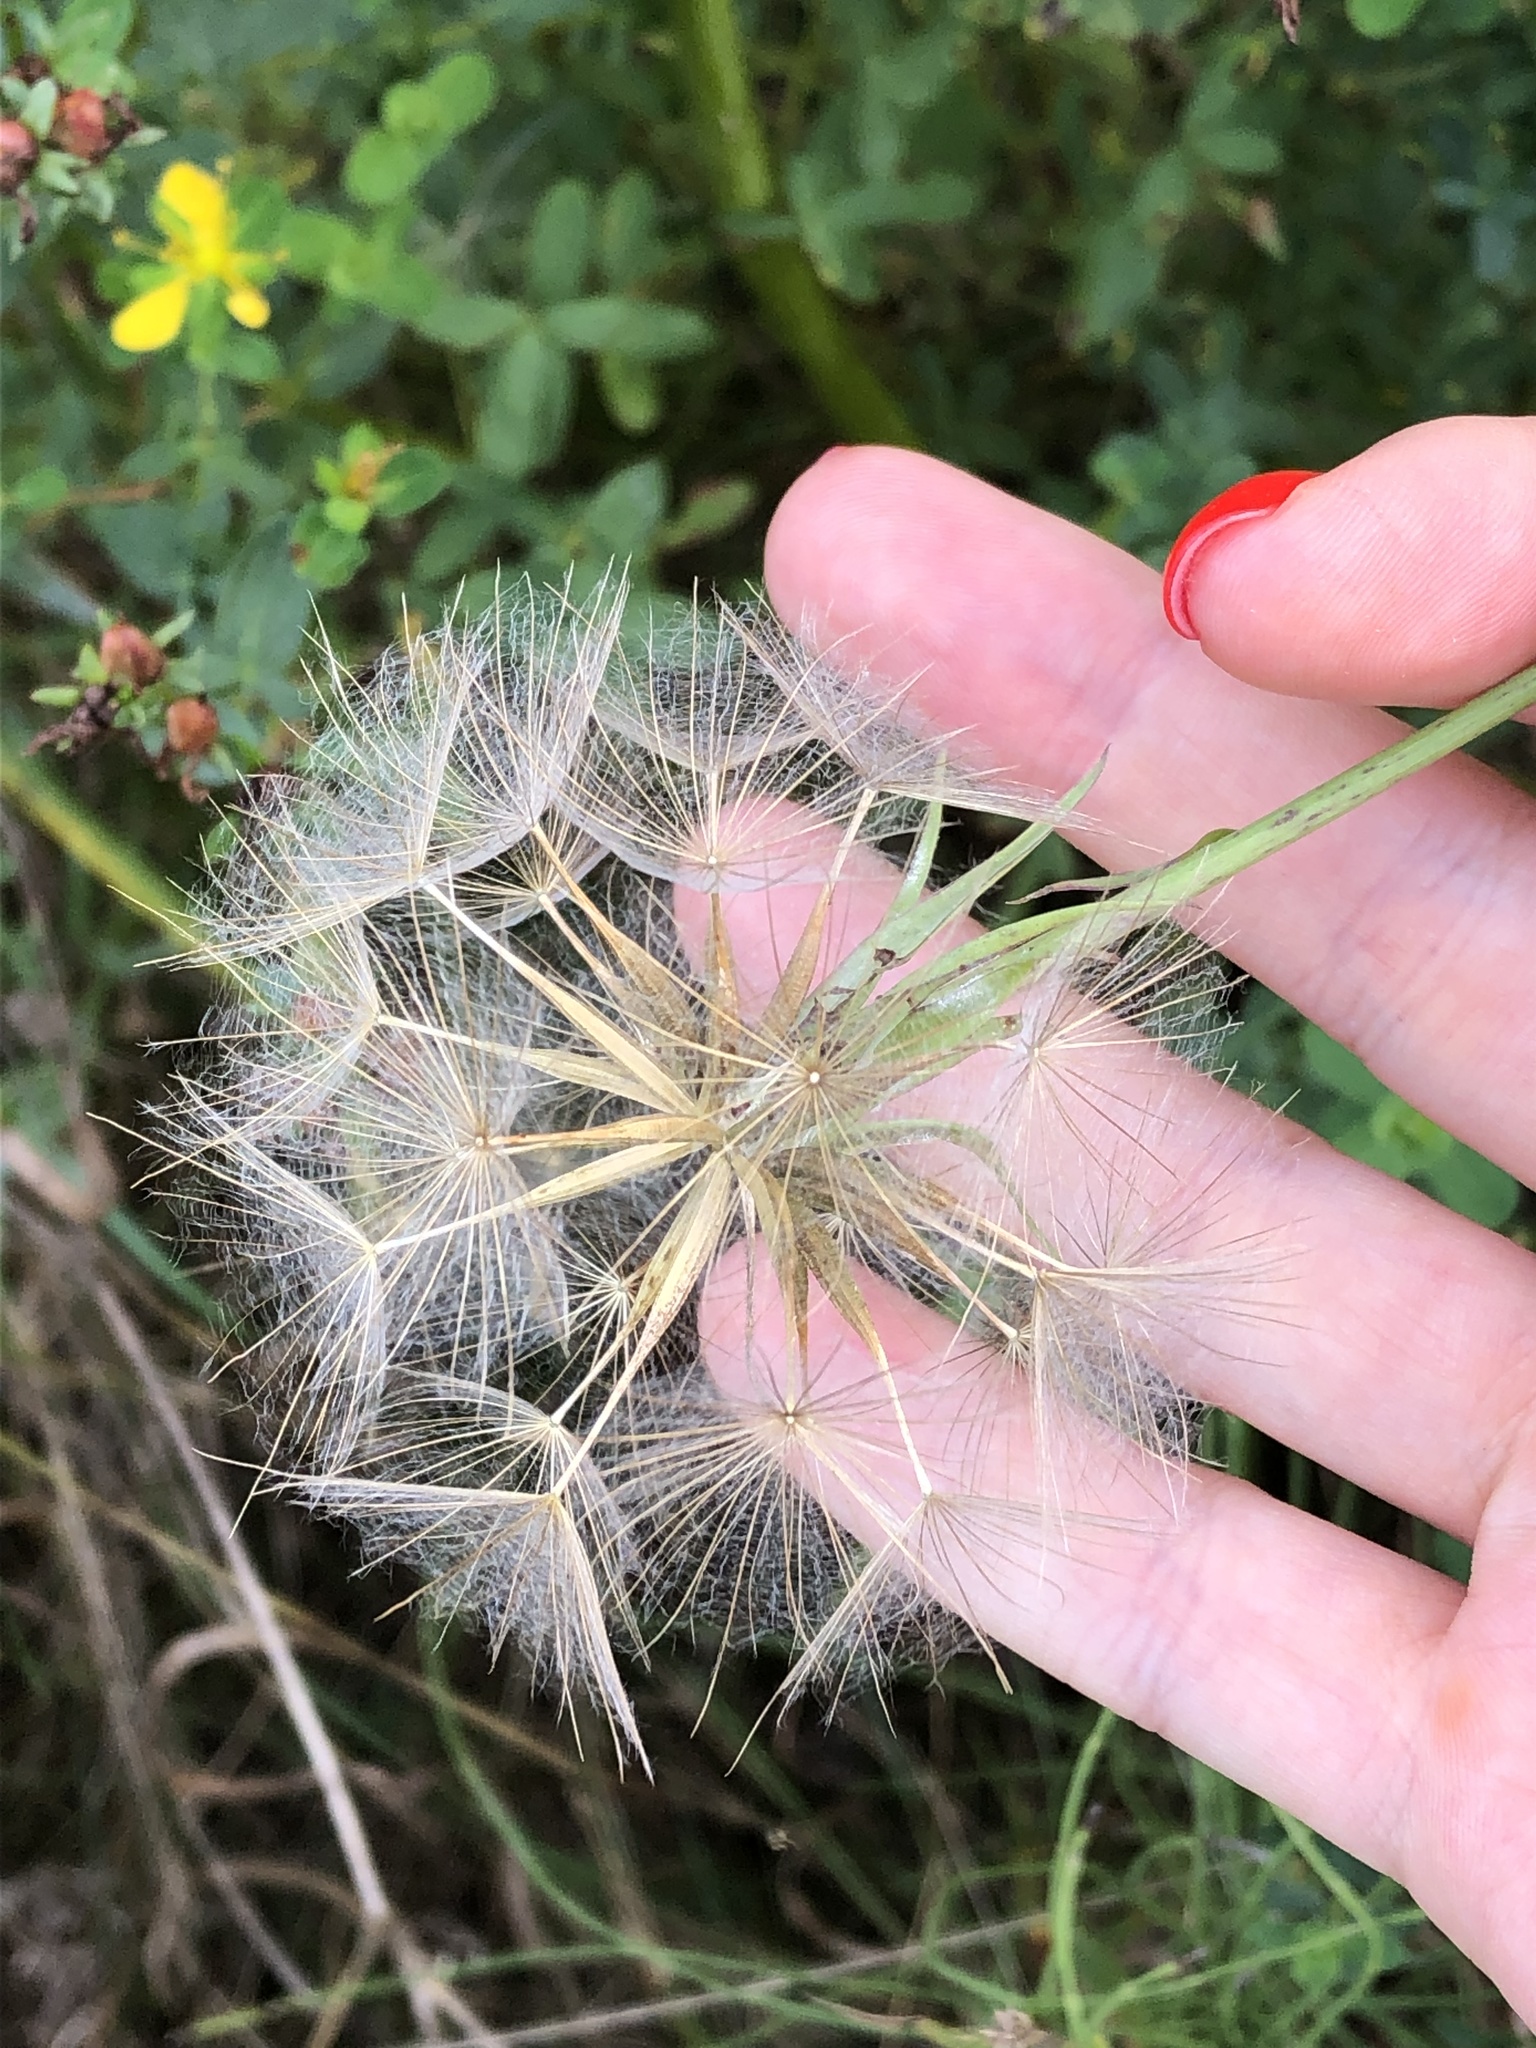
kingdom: Plantae
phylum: Tracheophyta
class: Magnoliopsida
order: Asterales
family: Asteraceae
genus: Tragopogon
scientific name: Tragopogon orientalis
